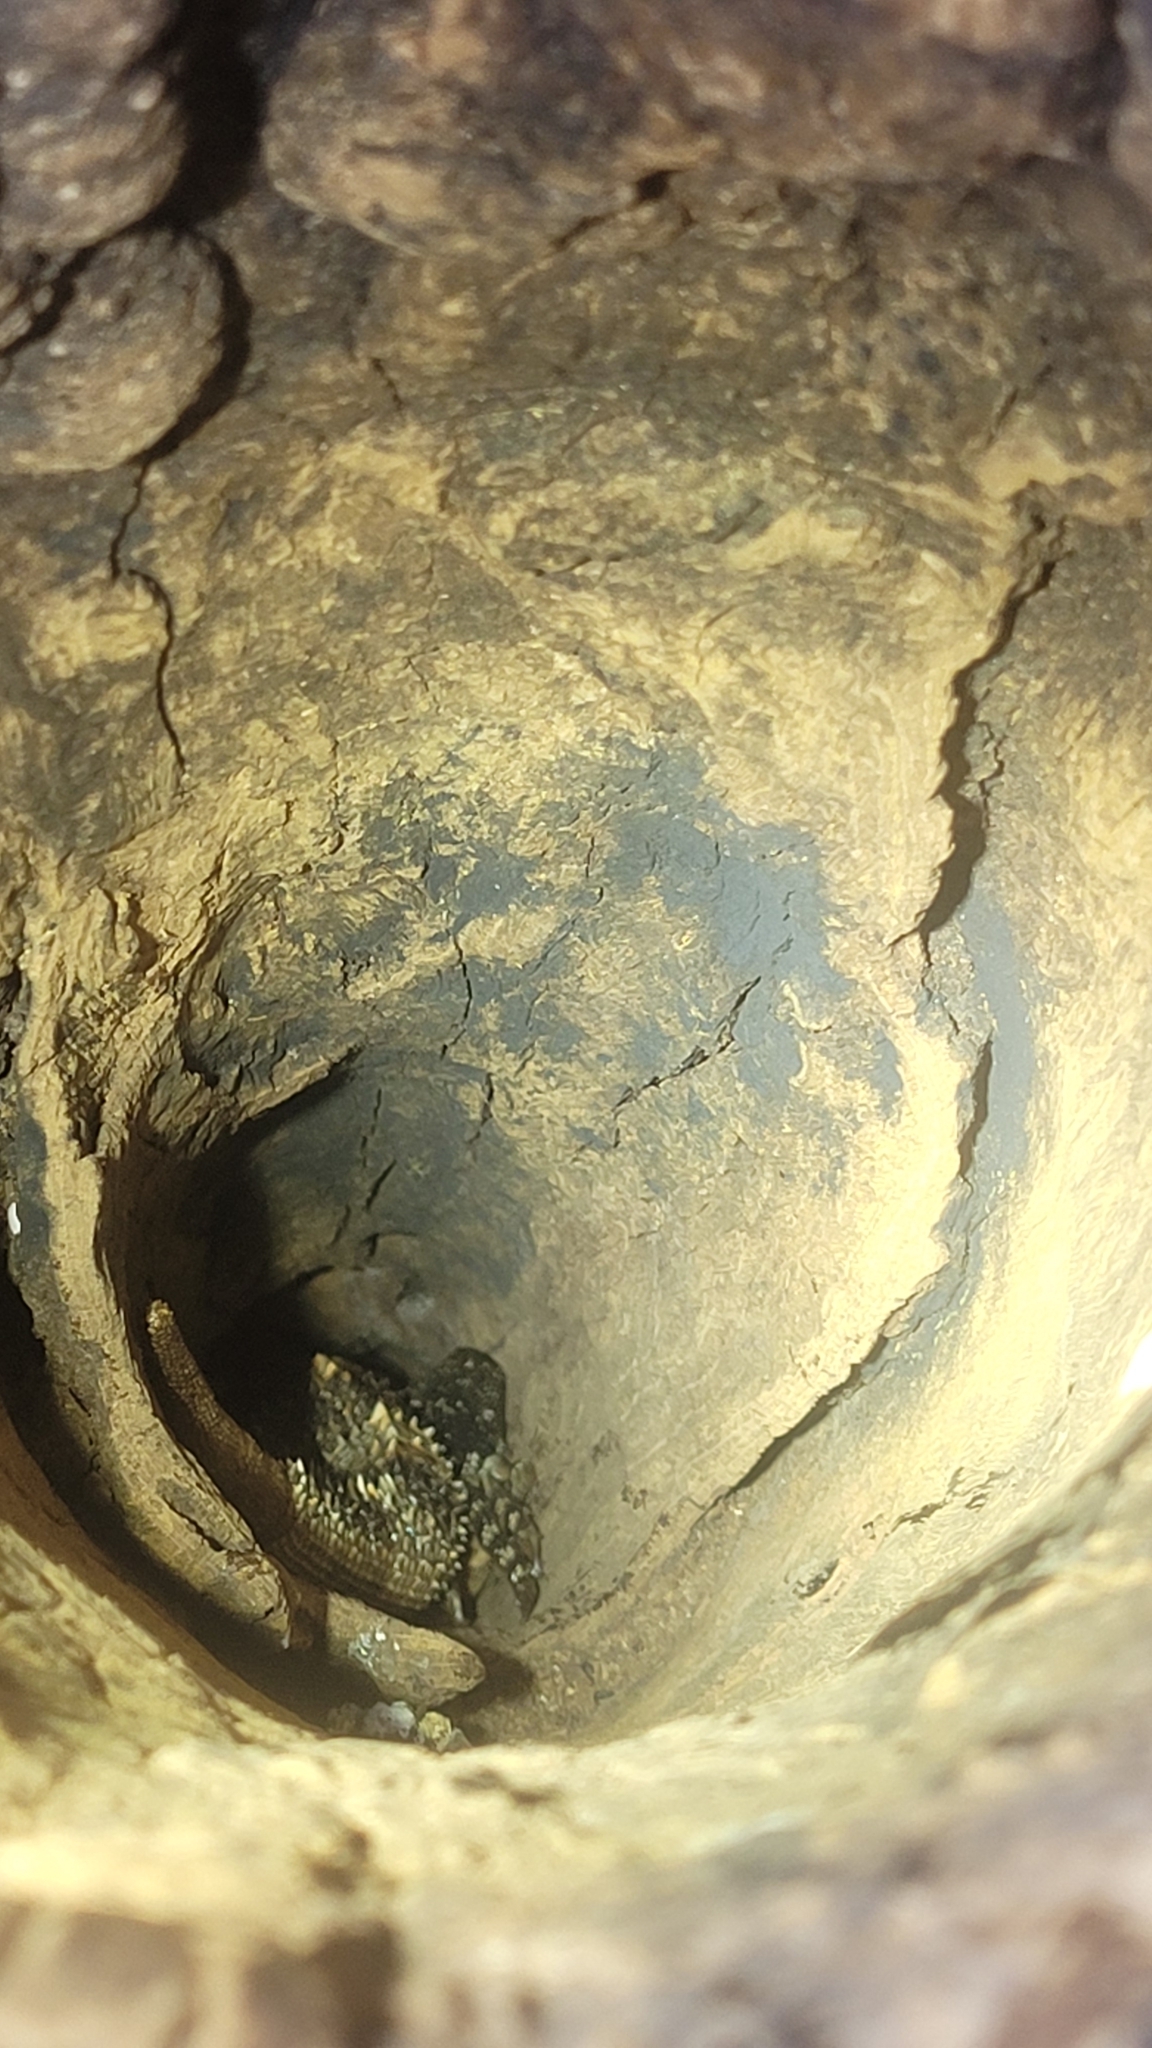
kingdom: Animalia
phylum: Chordata
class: Squamata
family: Iguanidae
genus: Ctenosaura
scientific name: Ctenosaura similis
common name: Black spiny-tailed iguana
